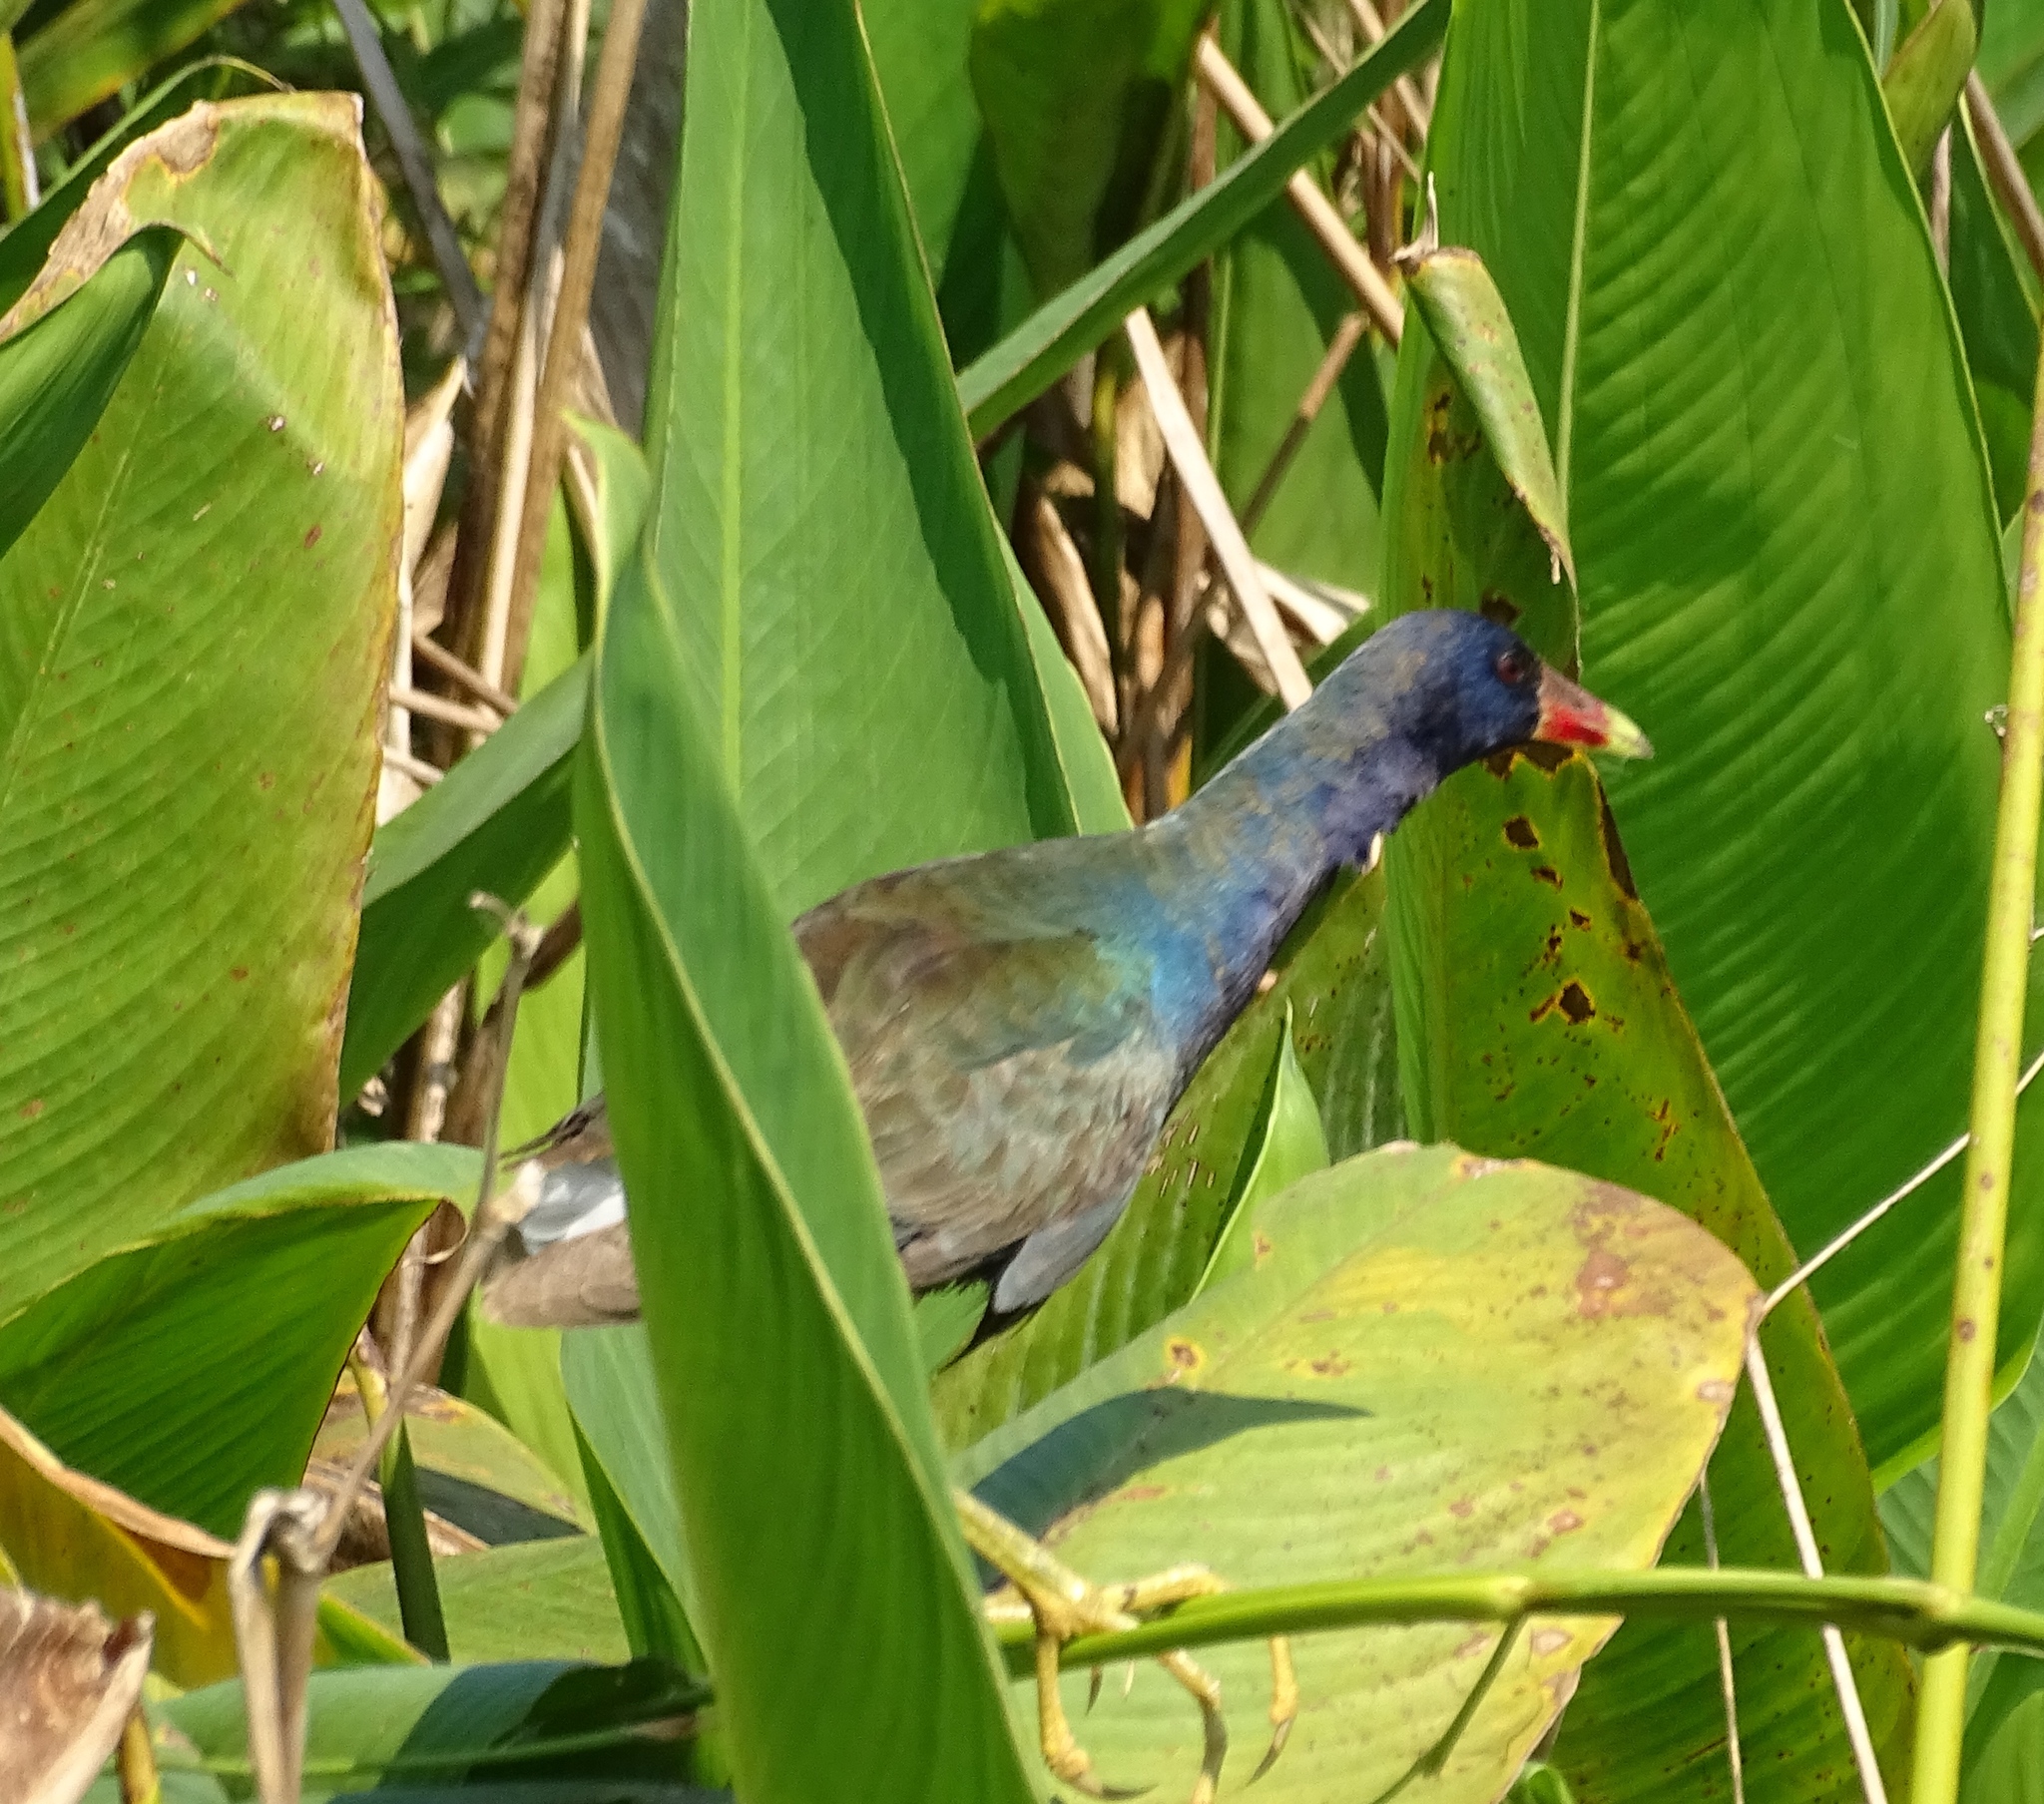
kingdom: Animalia
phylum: Chordata
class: Aves
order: Gruiformes
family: Rallidae
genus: Porphyrio
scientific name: Porphyrio martinica
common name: Purple gallinule
